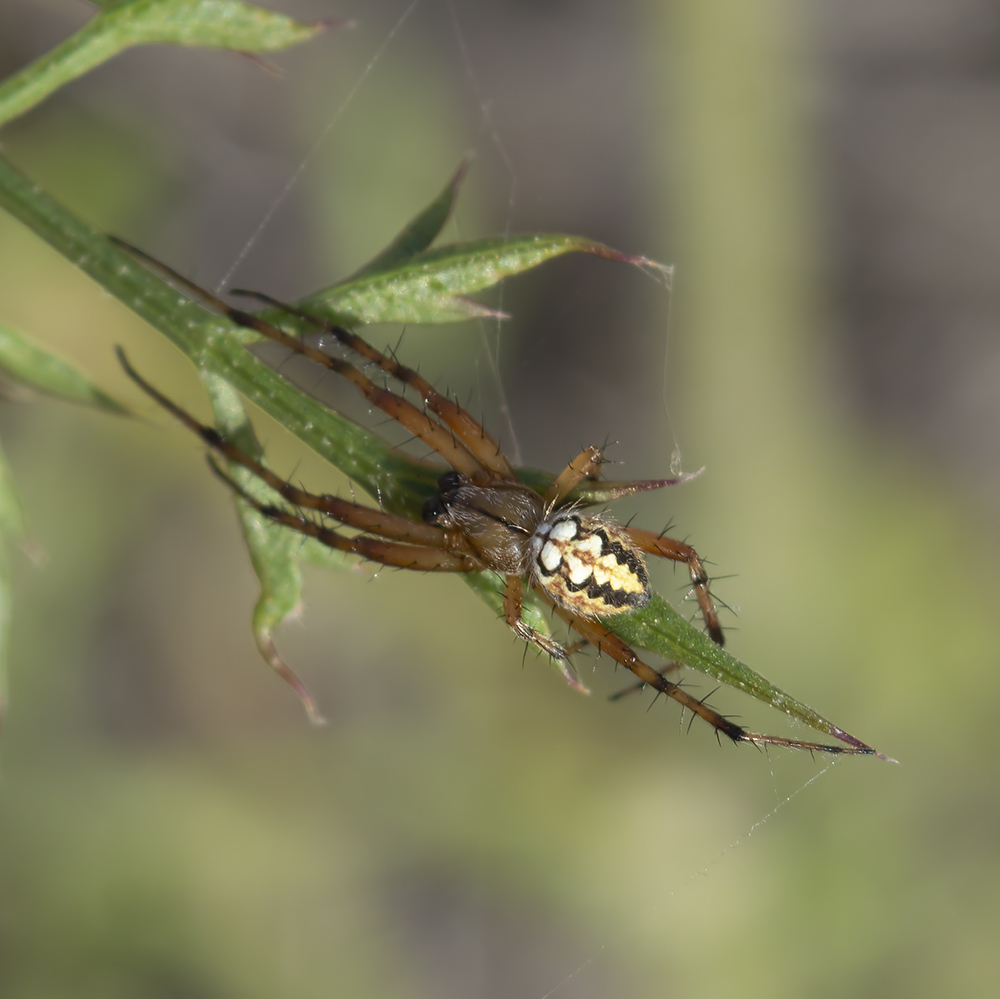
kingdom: Animalia
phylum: Arthropoda
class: Arachnida
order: Araneae
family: Araneidae
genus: Neoscona
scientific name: Neoscona adianta
